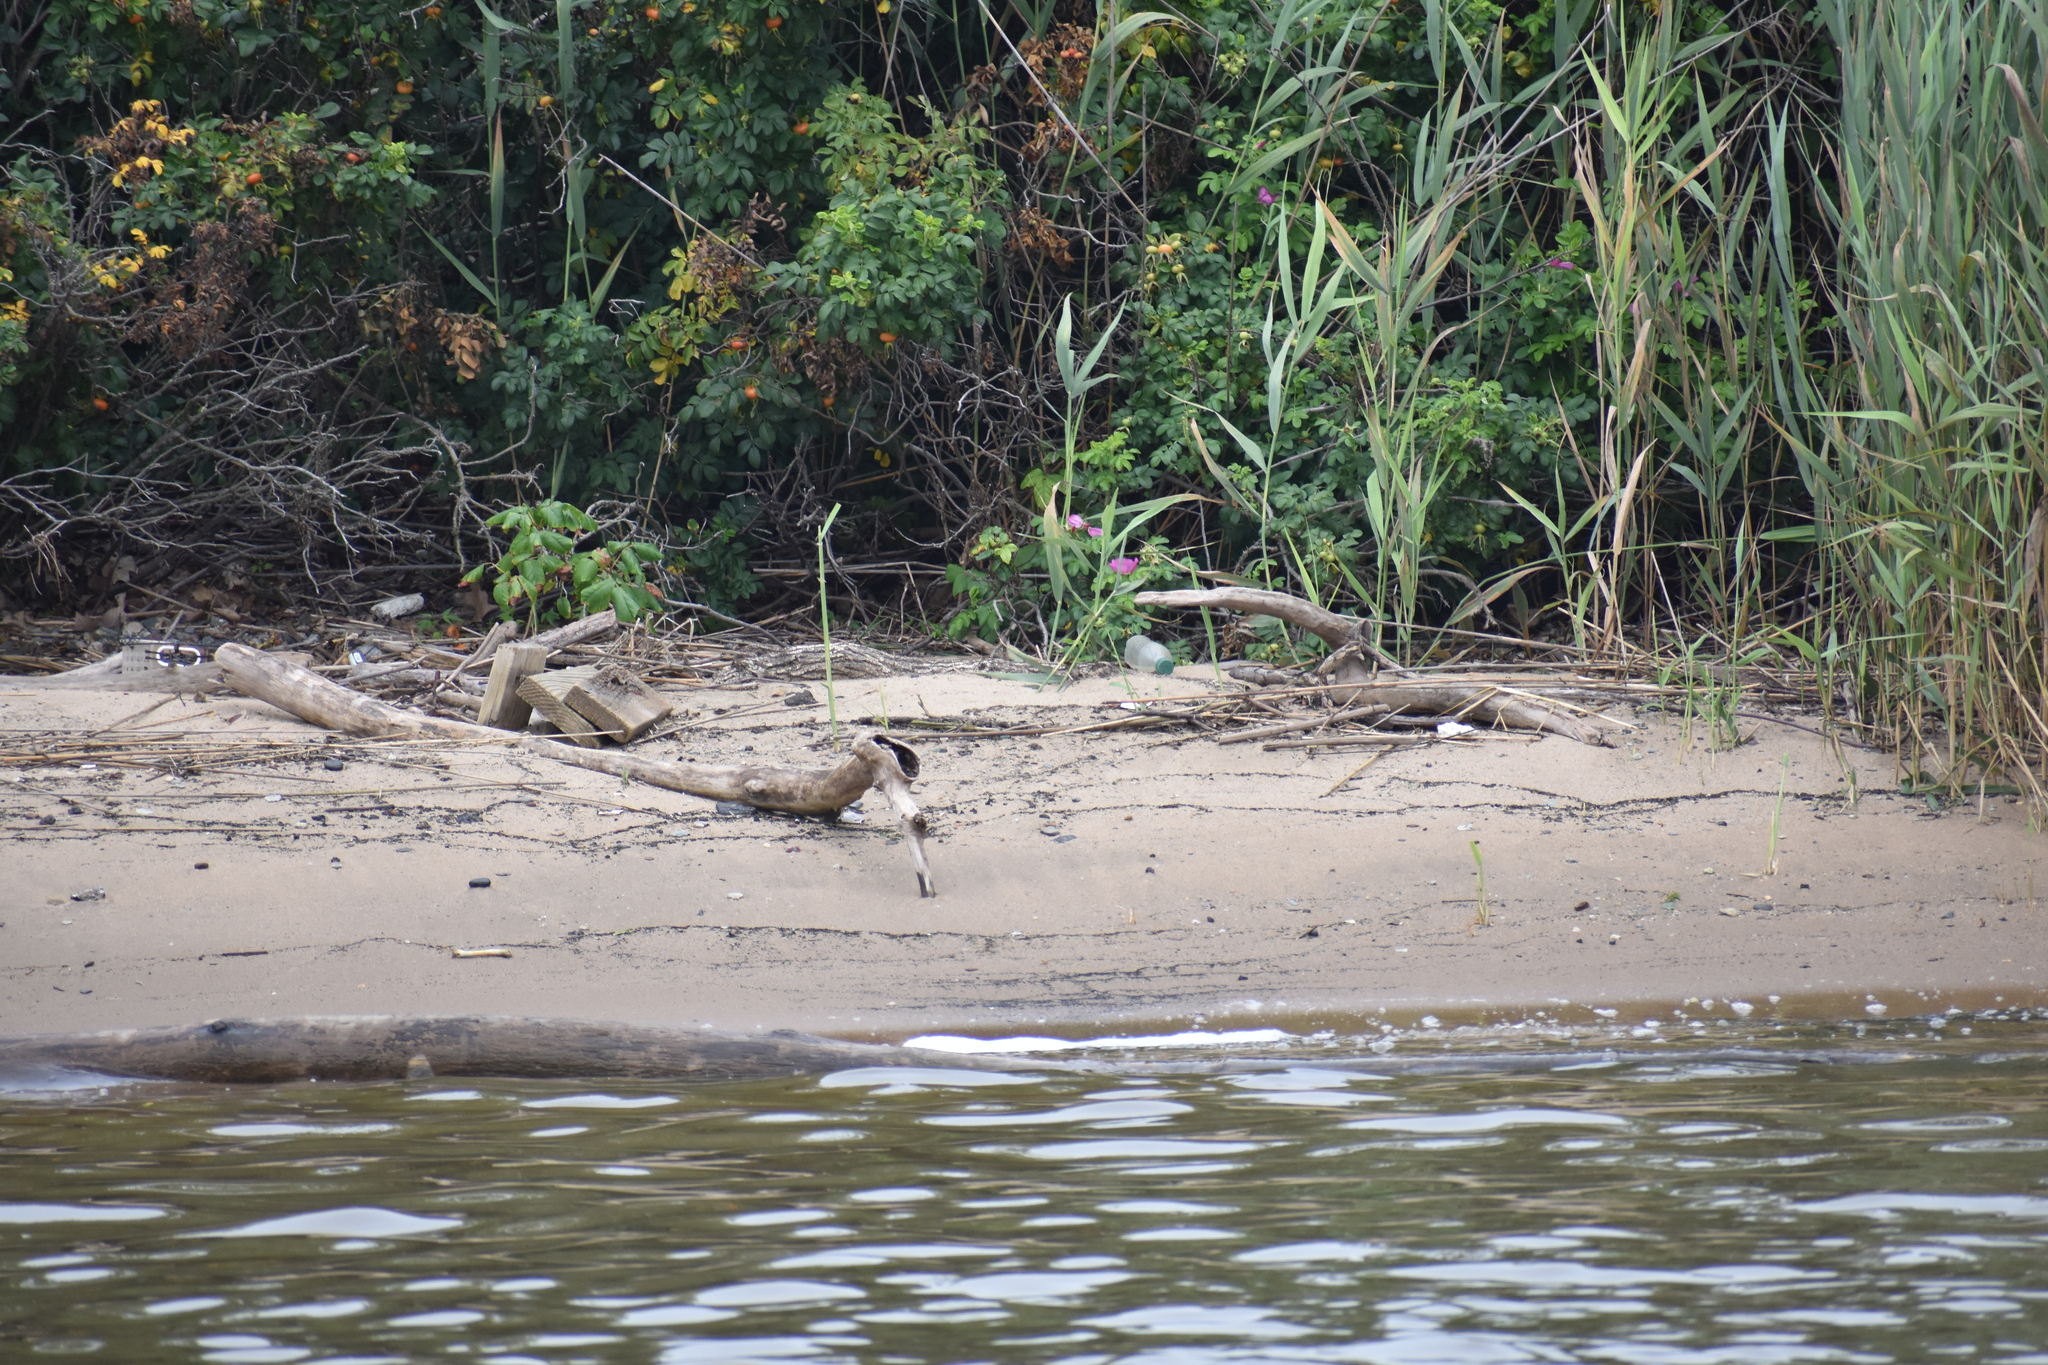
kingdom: Plantae
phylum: Tracheophyta
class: Magnoliopsida
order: Rosales
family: Rosaceae
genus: Rosa
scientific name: Rosa rugosa
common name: Japanese rose
